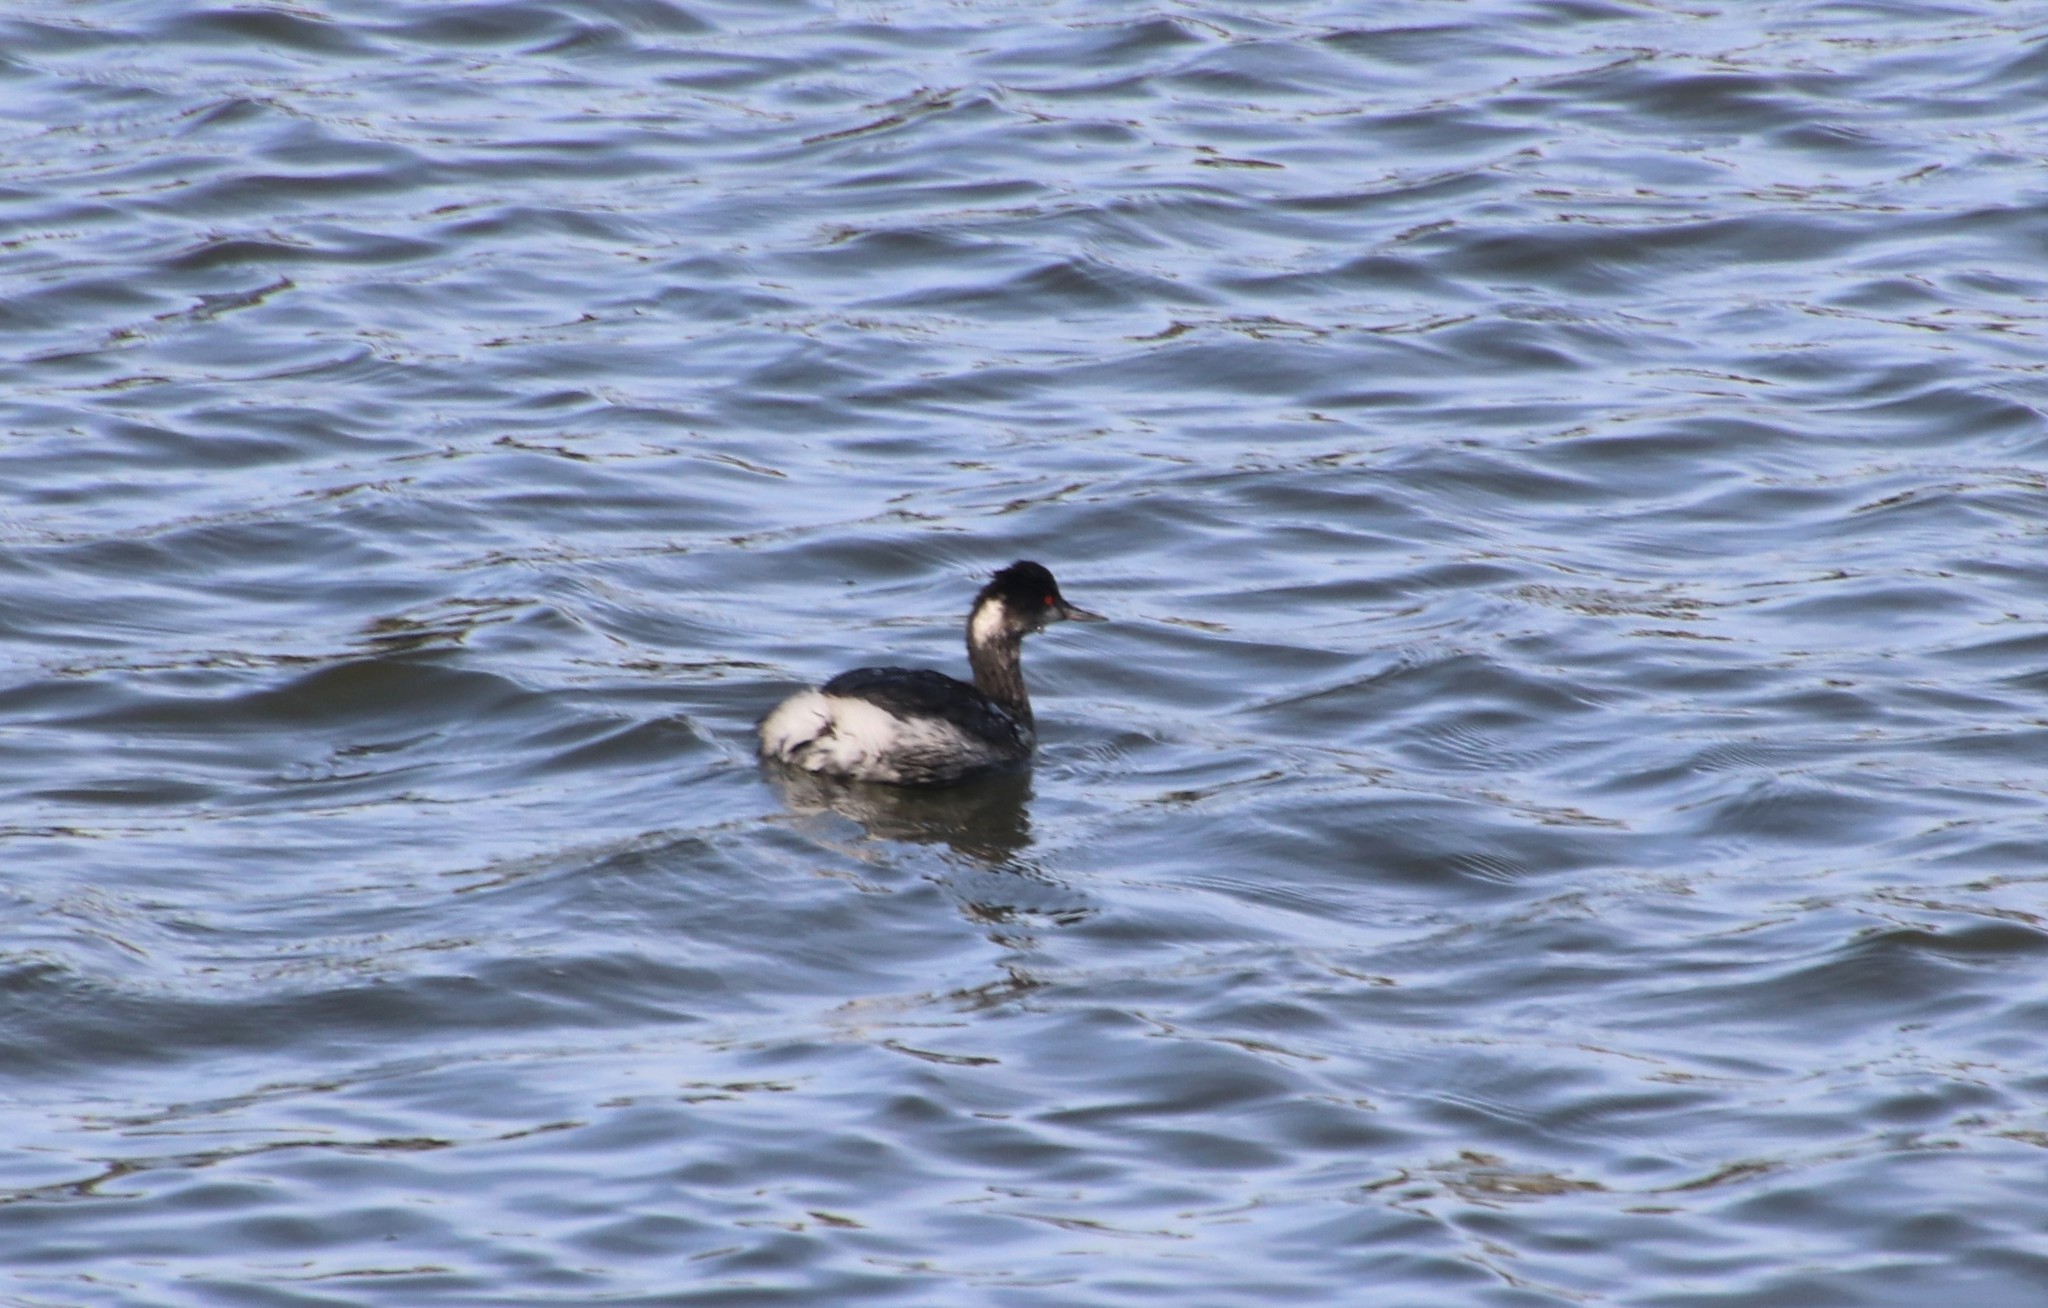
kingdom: Animalia
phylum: Chordata
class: Aves
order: Podicipediformes
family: Podicipedidae
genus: Podiceps
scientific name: Podiceps nigricollis
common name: Black-necked grebe
